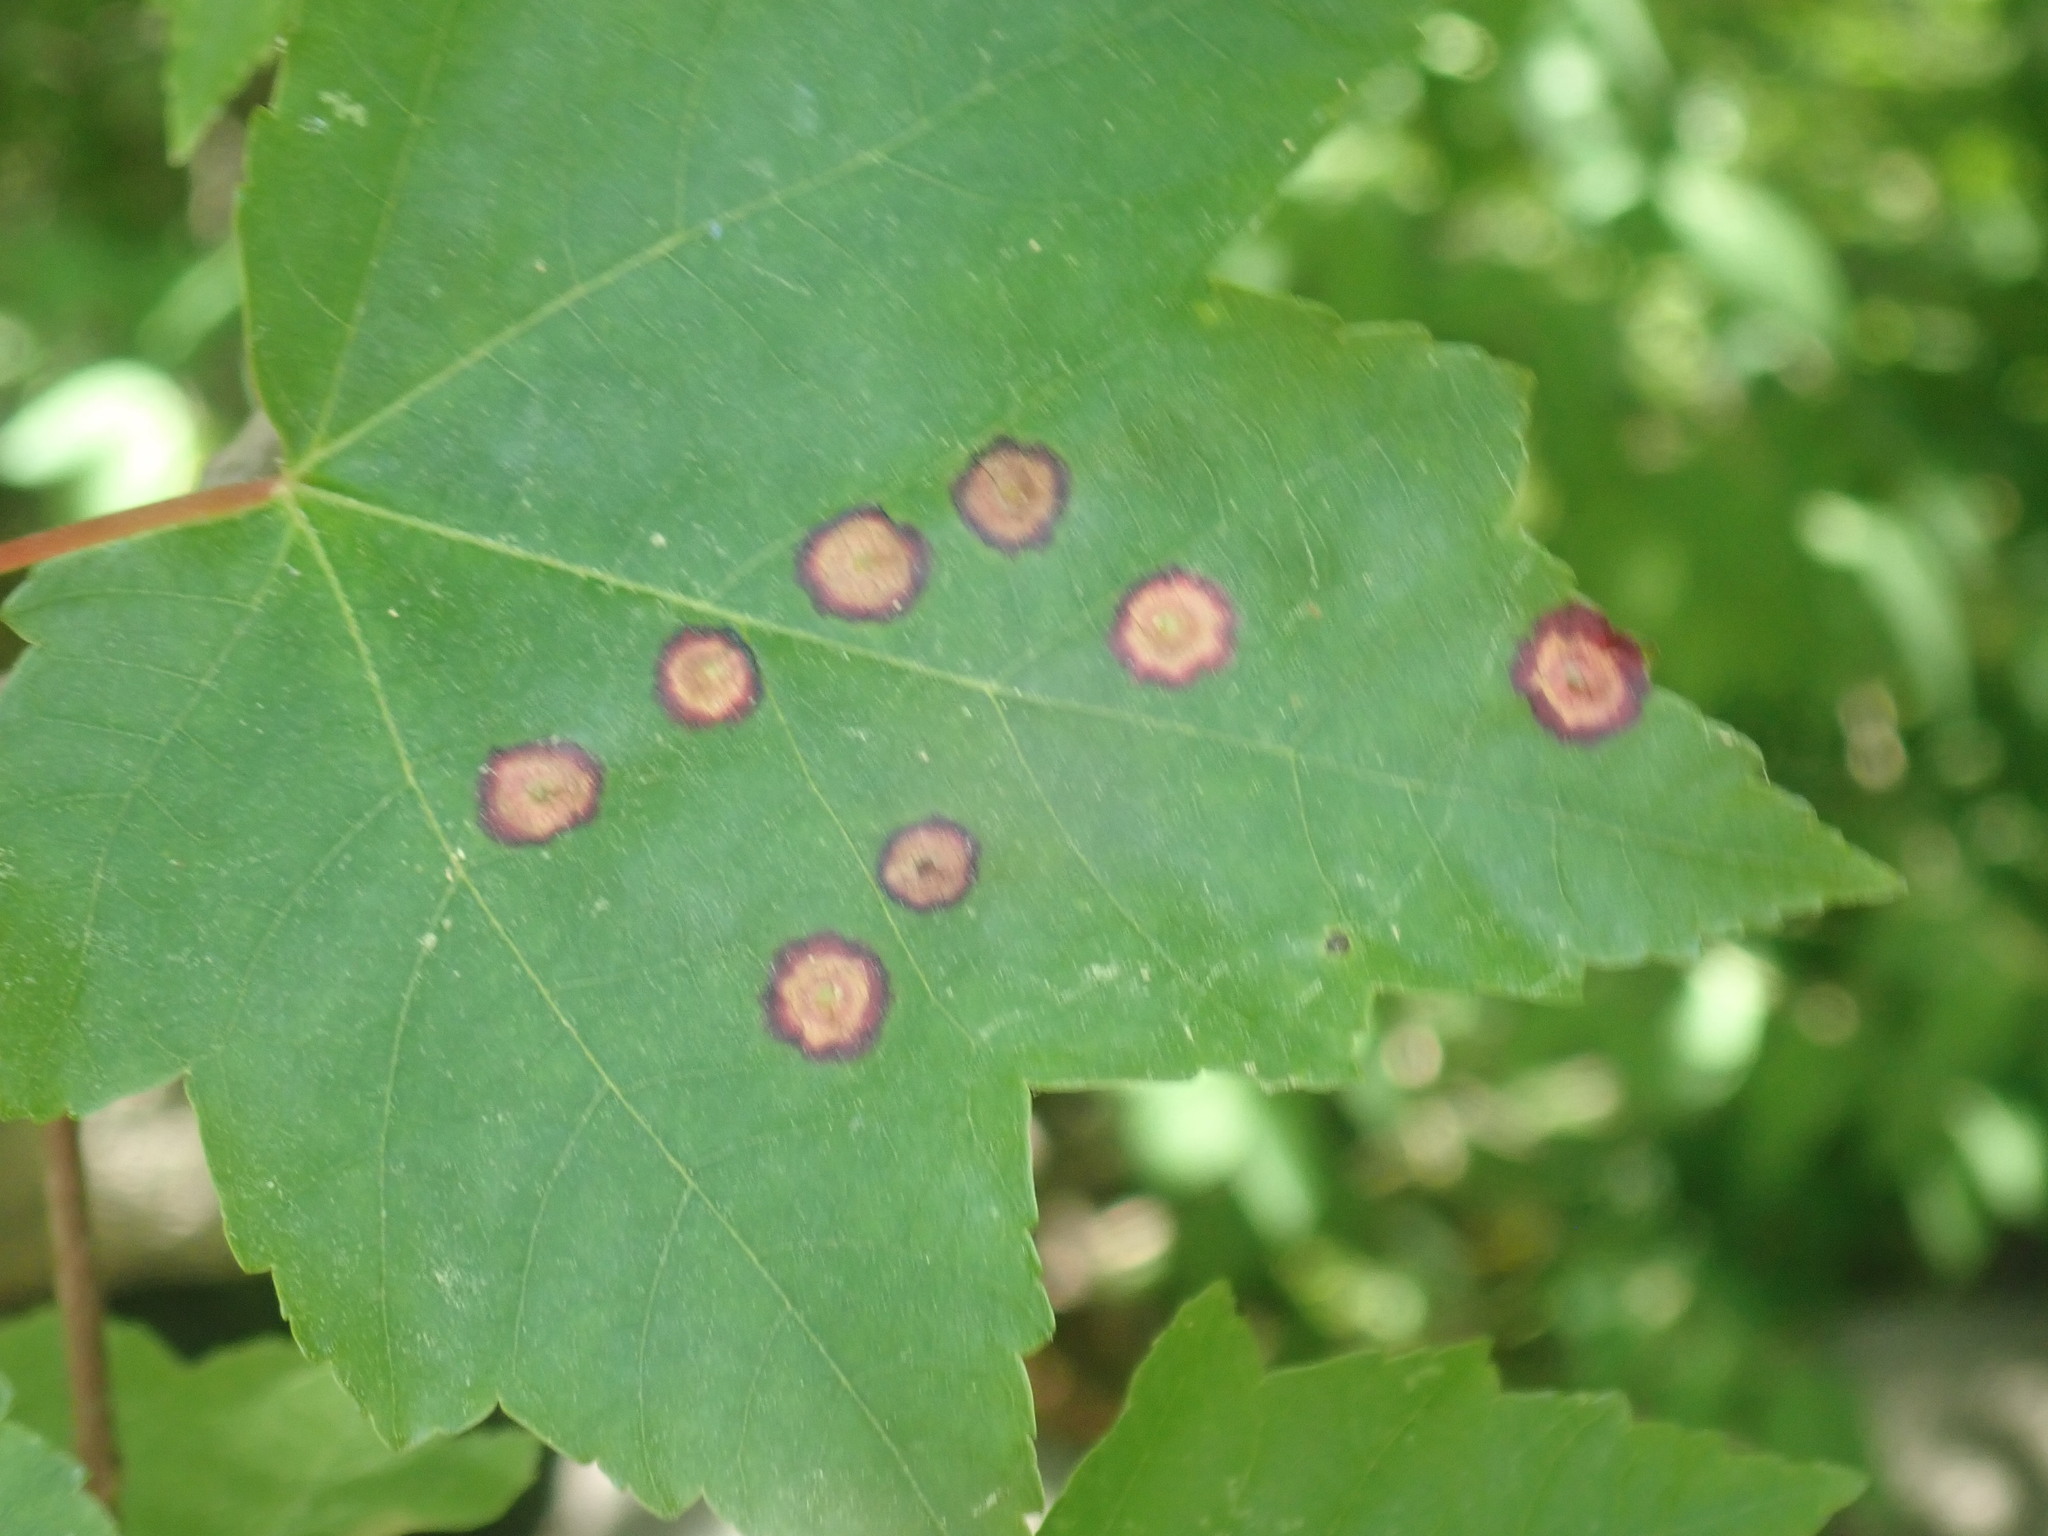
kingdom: Animalia
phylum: Arthropoda
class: Insecta
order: Diptera
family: Cecidomyiidae
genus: Acericecis
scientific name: Acericecis ocellaris
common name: Ocellate gall midge
